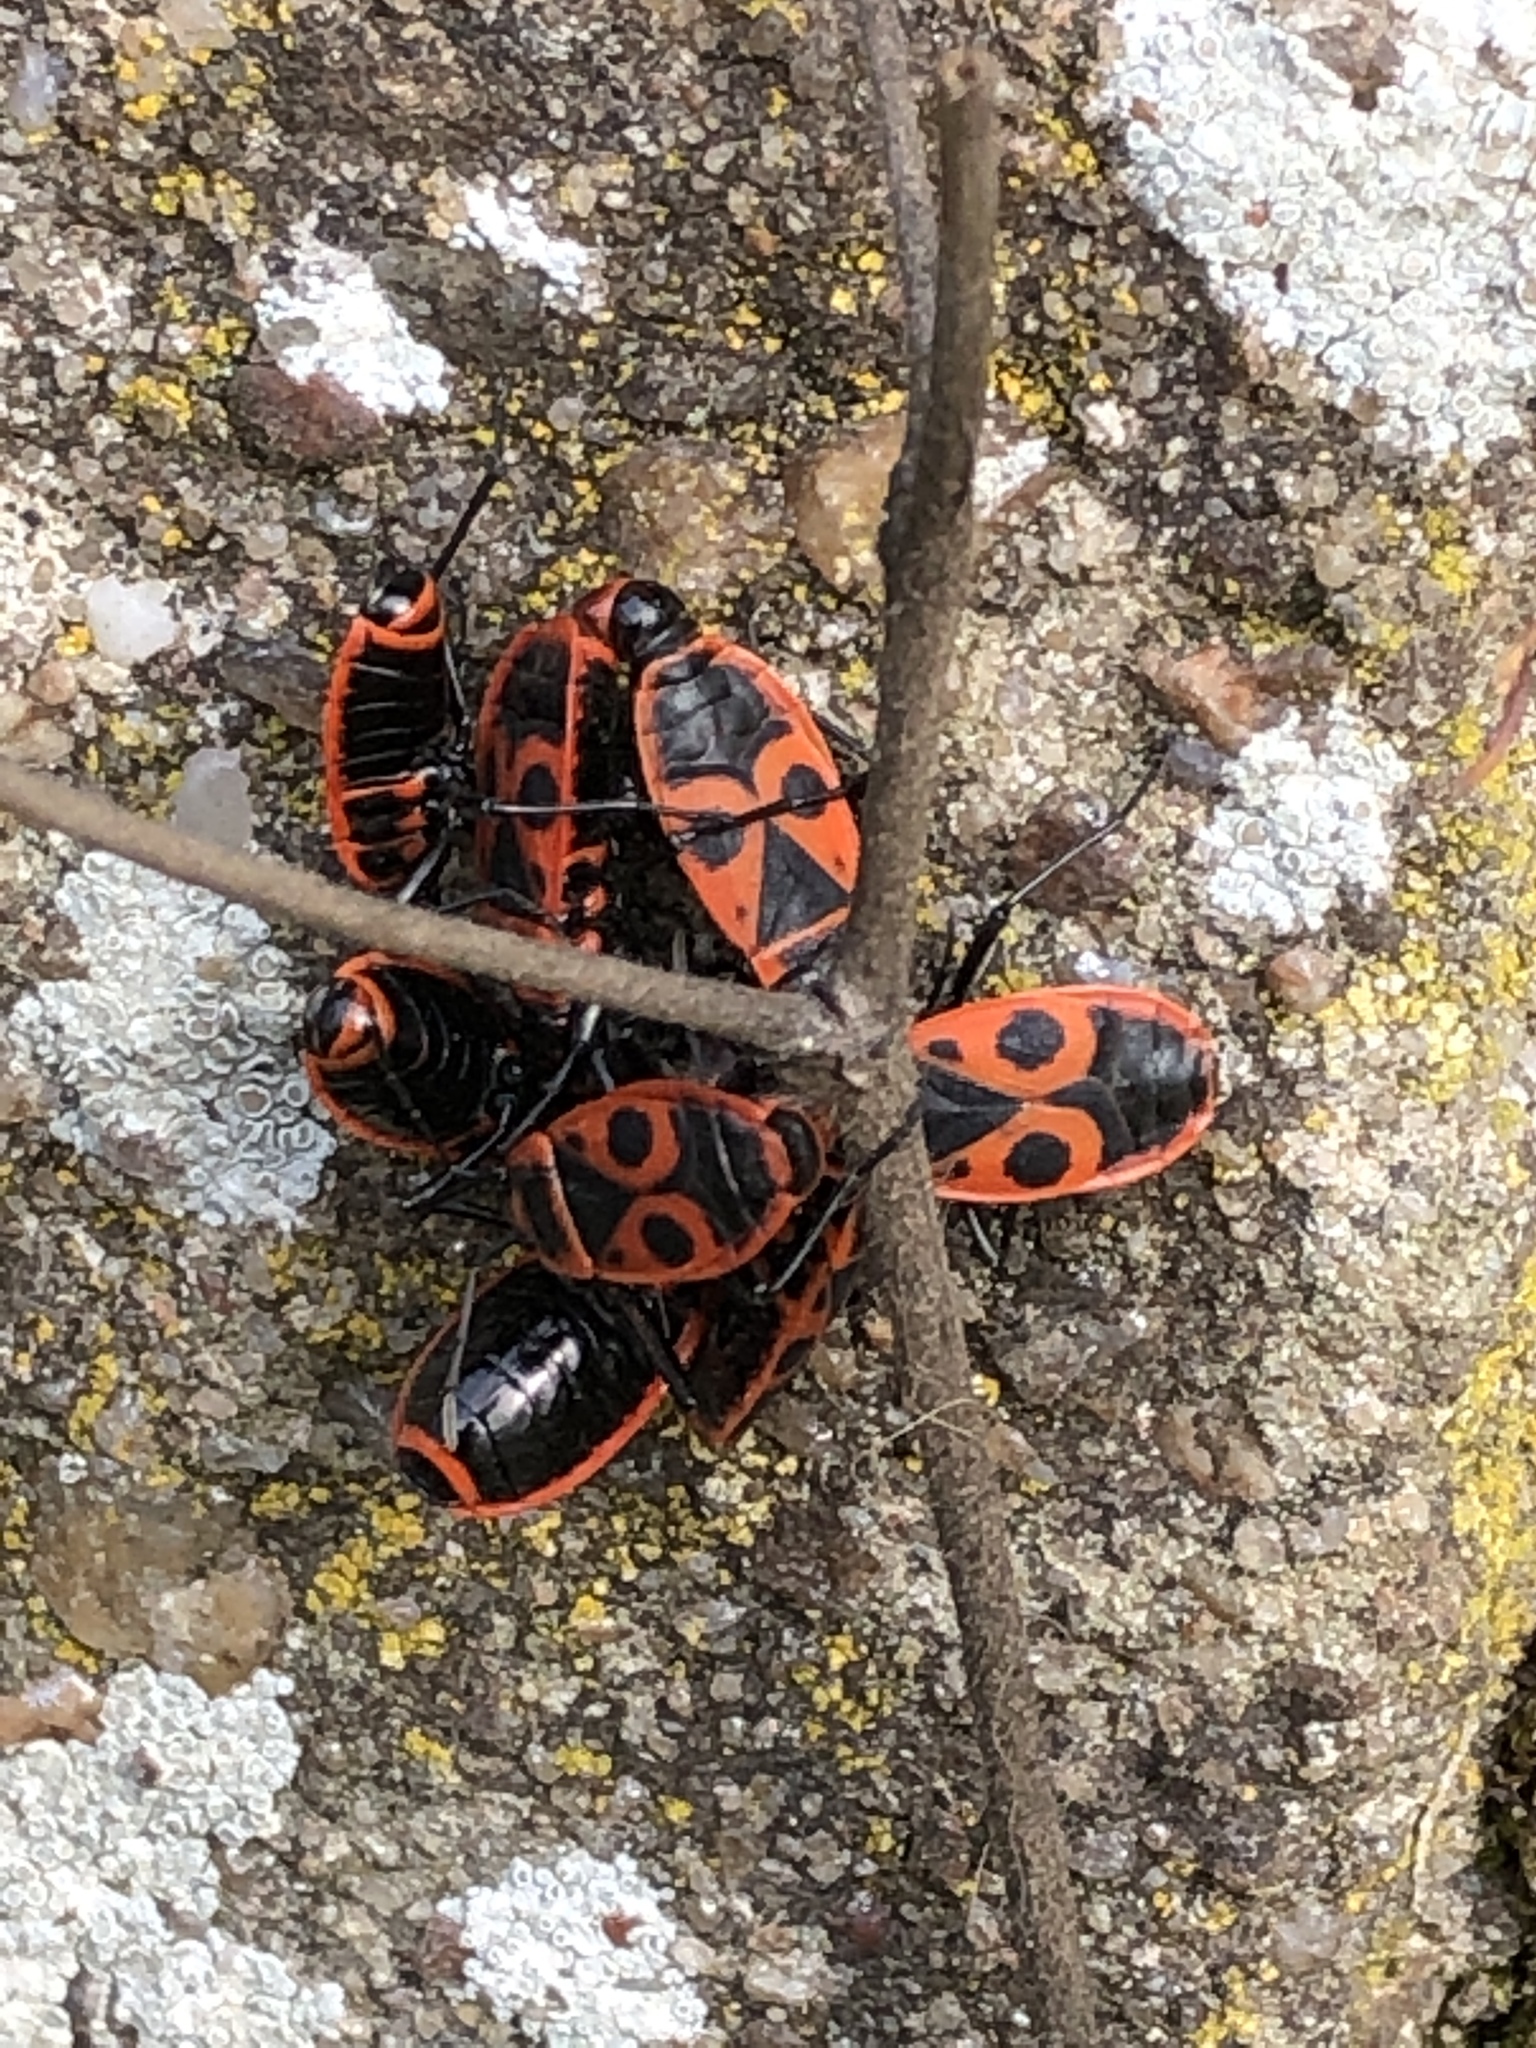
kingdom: Animalia
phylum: Arthropoda
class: Insecta
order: Hemiptera
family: Pyrrhocoridae
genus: Pyrrhocoris
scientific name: Pyrrhocoris apterus
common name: Firebug
